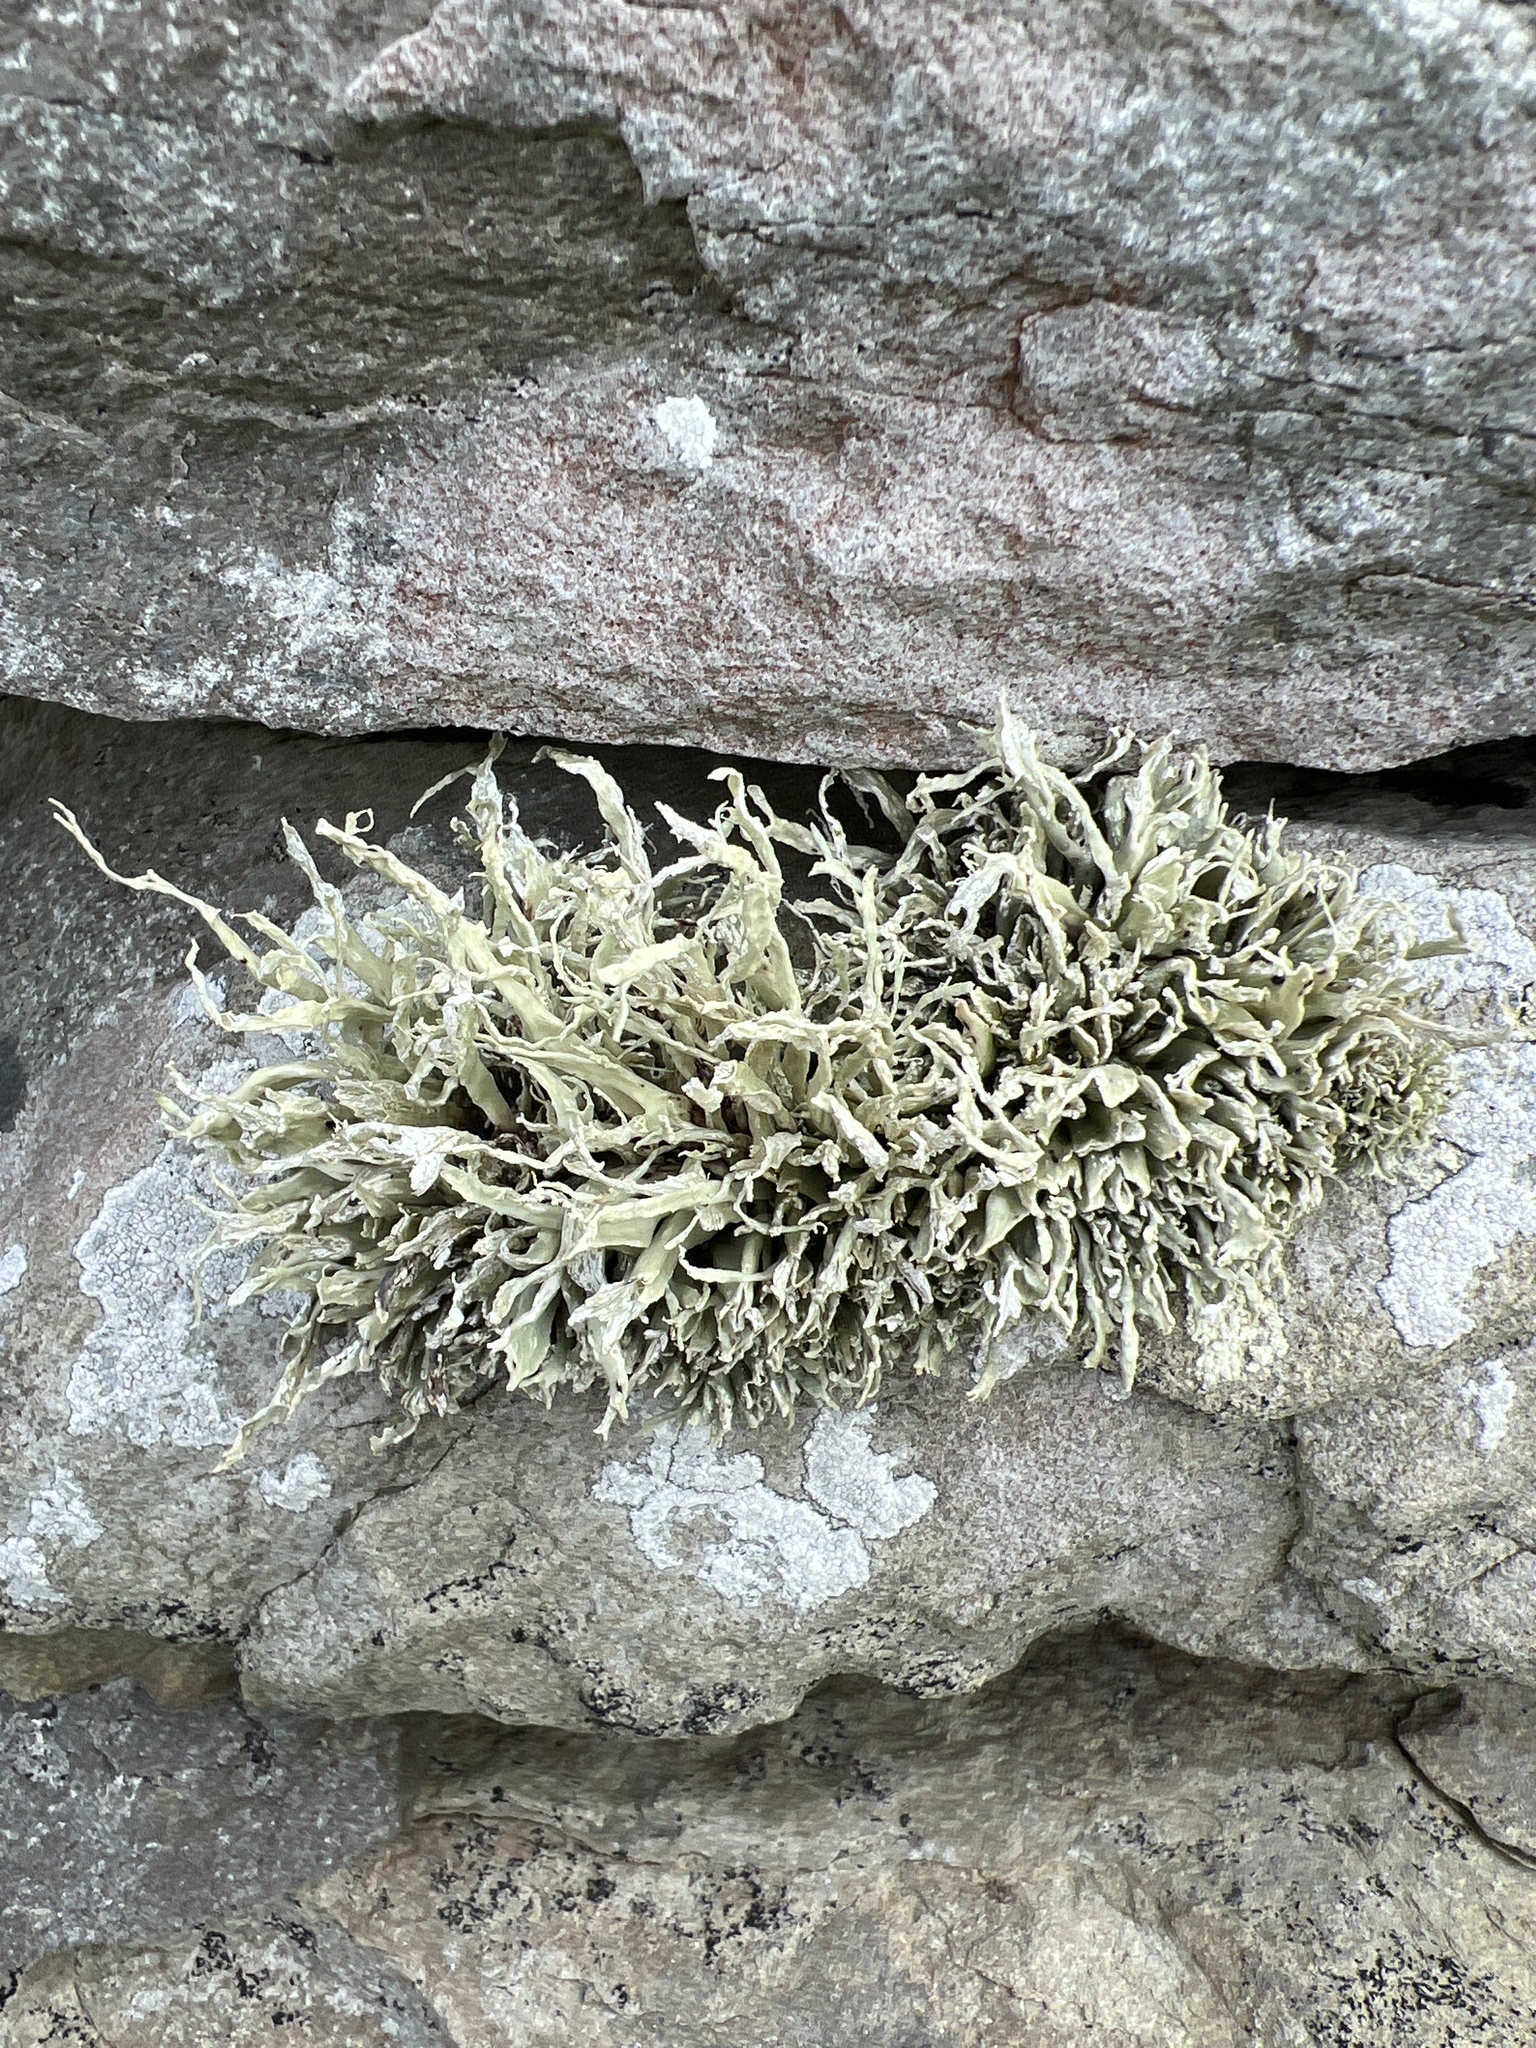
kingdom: Fungi
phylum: Ascomycota
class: Lecanoromycetes
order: Lecanorales
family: Ramalinaceae
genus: Ramalina
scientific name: Ramalina siliquosa
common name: Sea ivory
